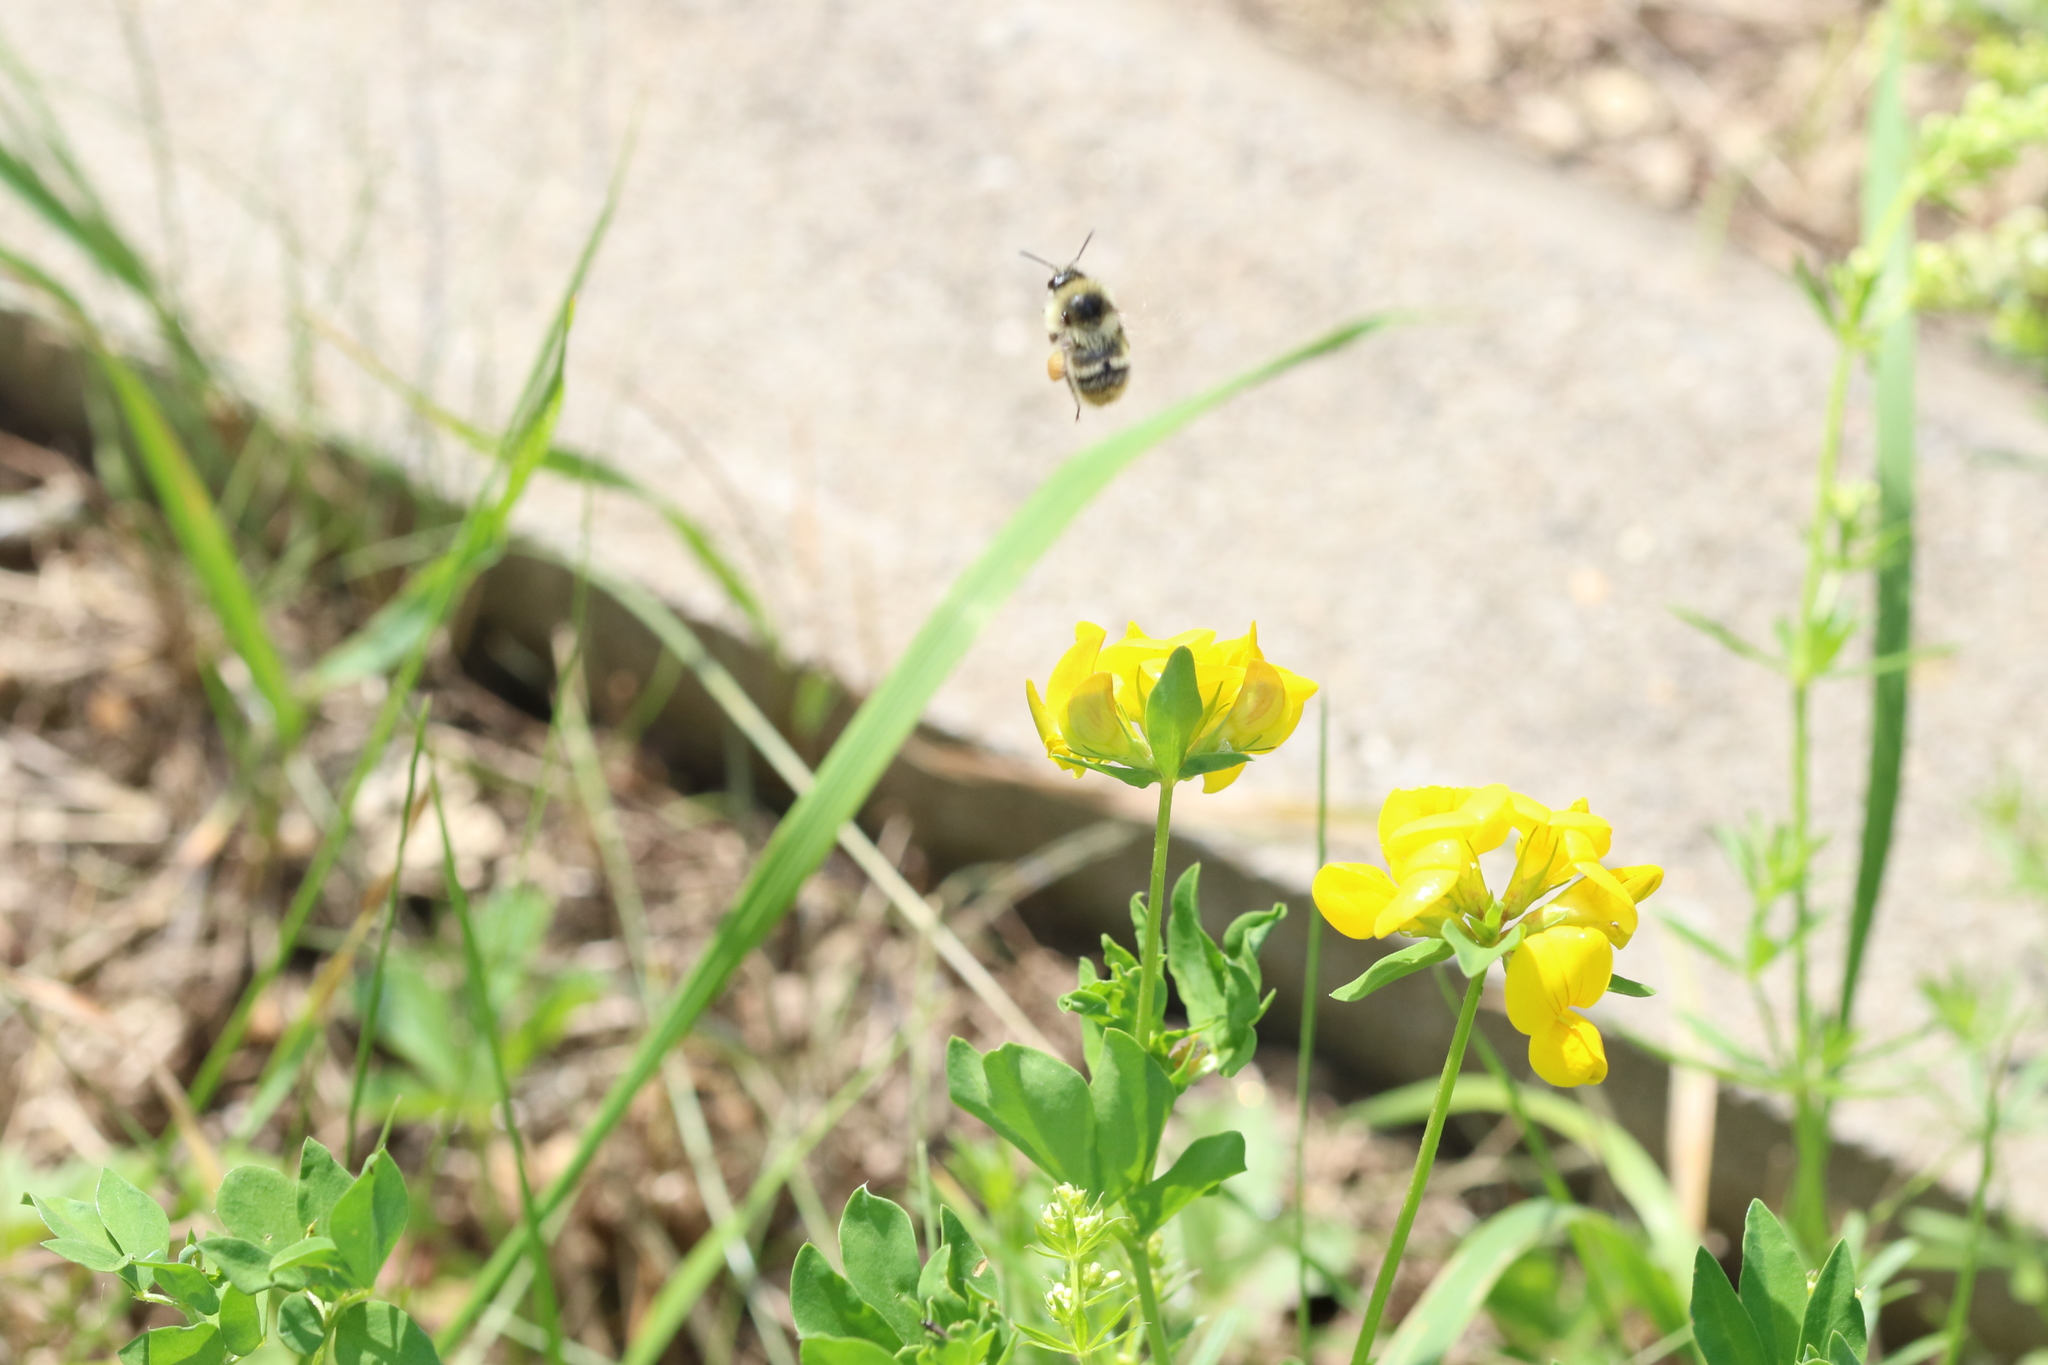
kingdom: Animalia
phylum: Arthropoda
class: Insecta
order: Hymenoptera
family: Apidae
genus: Bombus
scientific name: Bombus sylvarum
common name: Shrill carder bee
